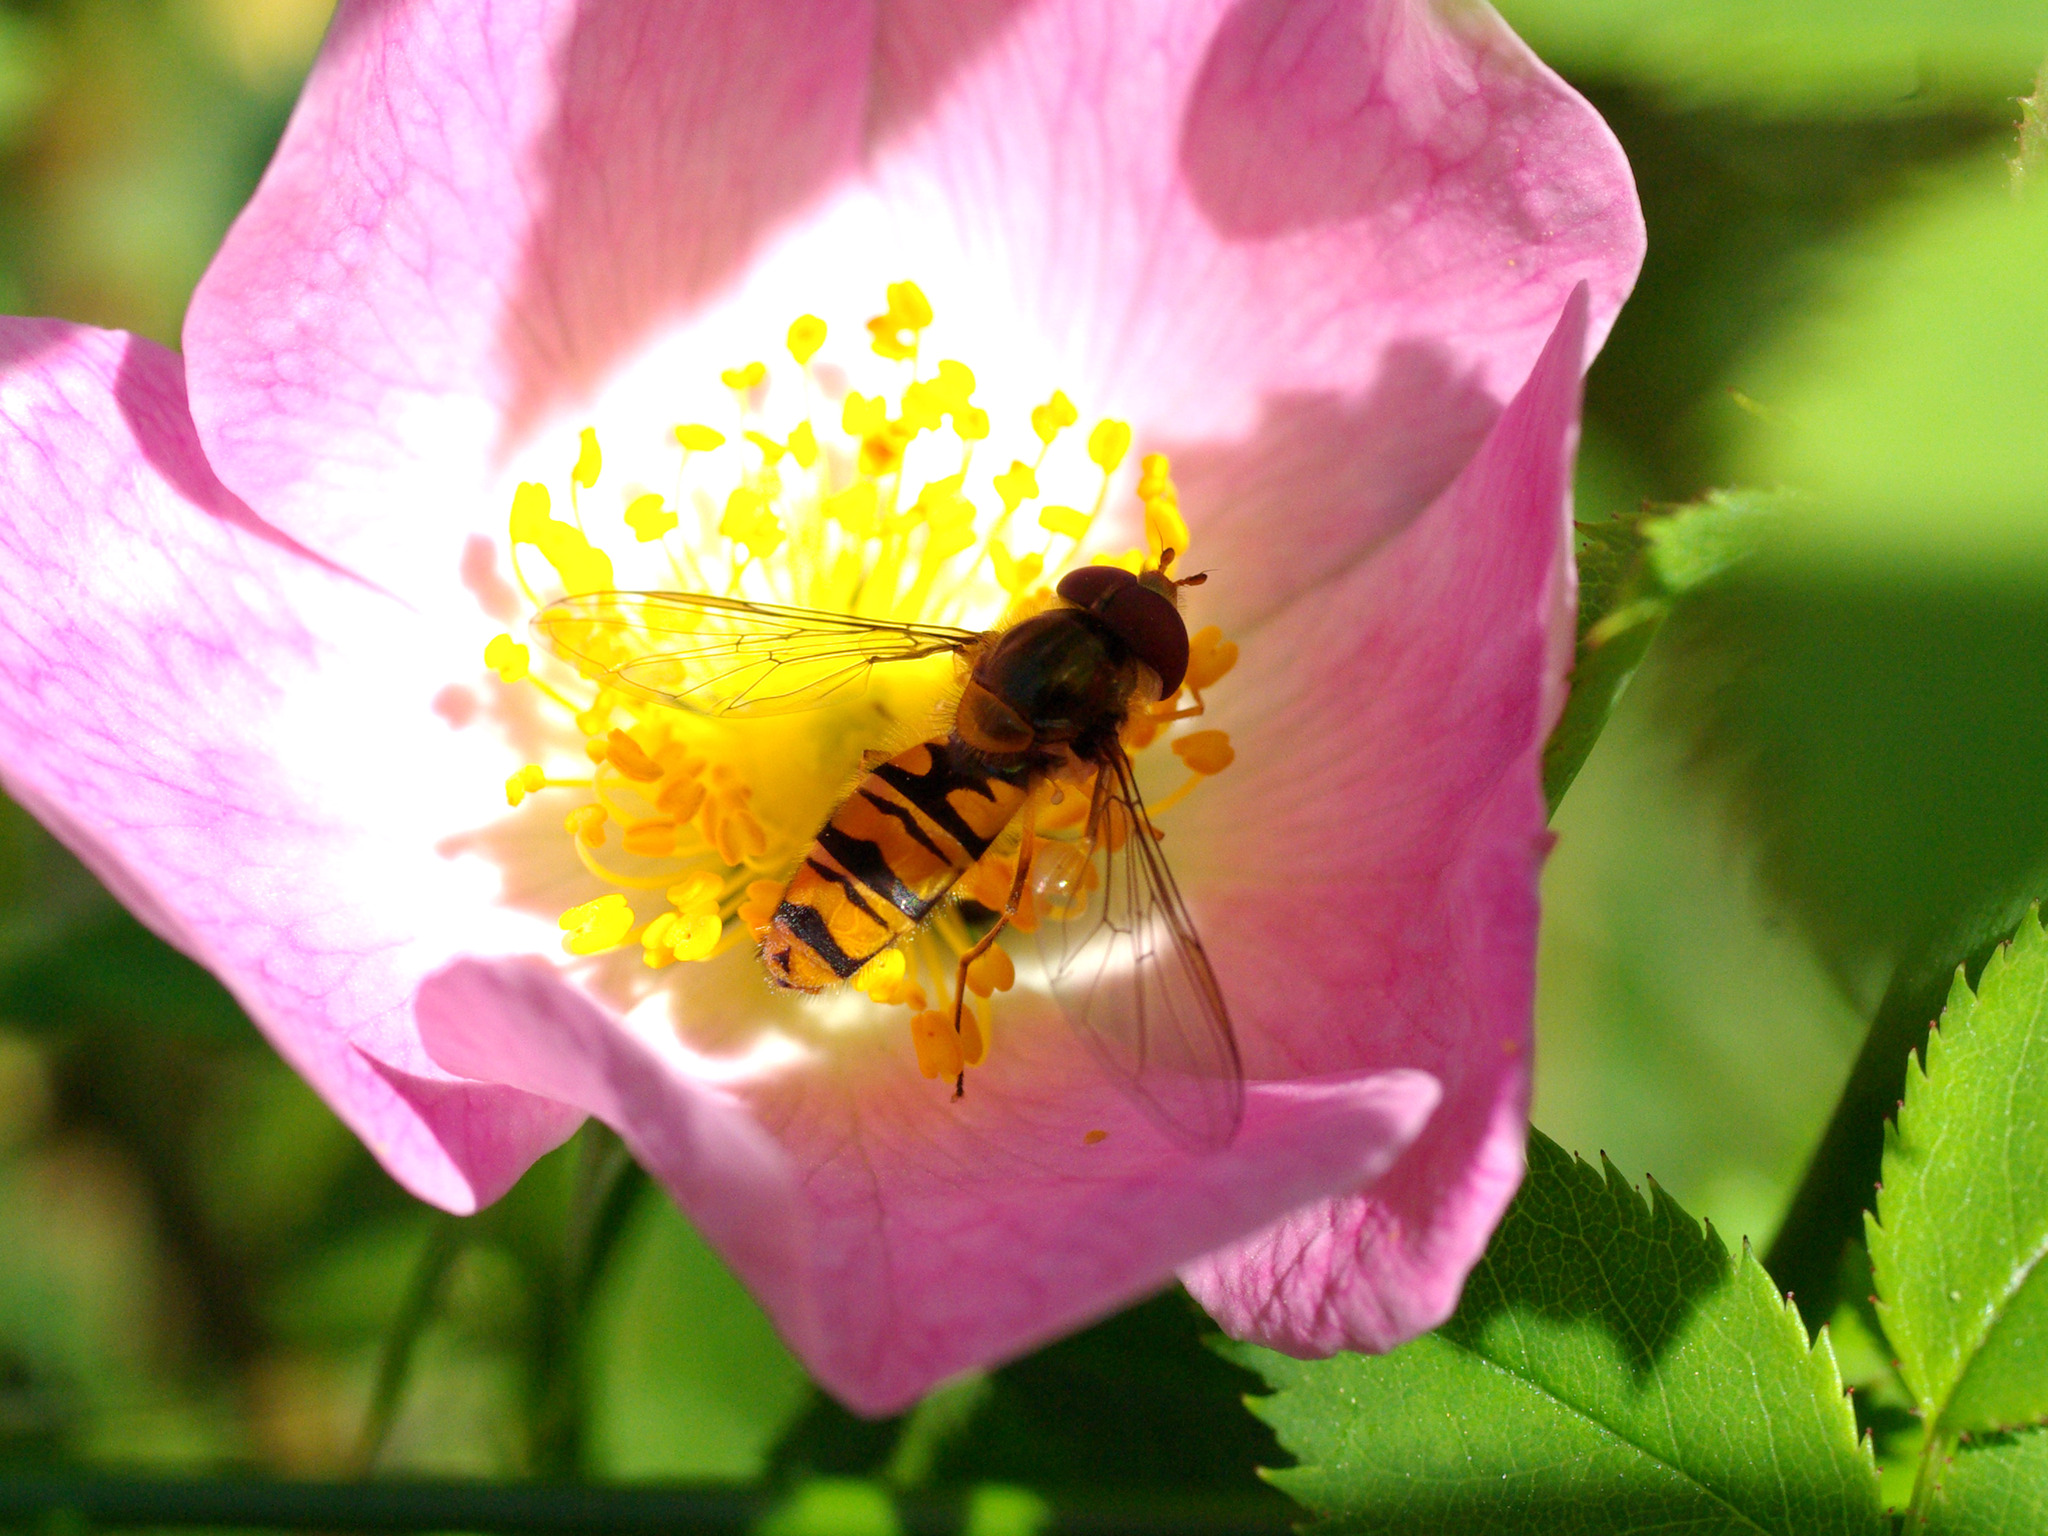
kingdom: Animalia
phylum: Arthropoda
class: Insecta
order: Diptera
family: Syrphidae
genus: Episyrphus
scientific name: Episyrphus balteatus
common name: Marmalade hoverfly
